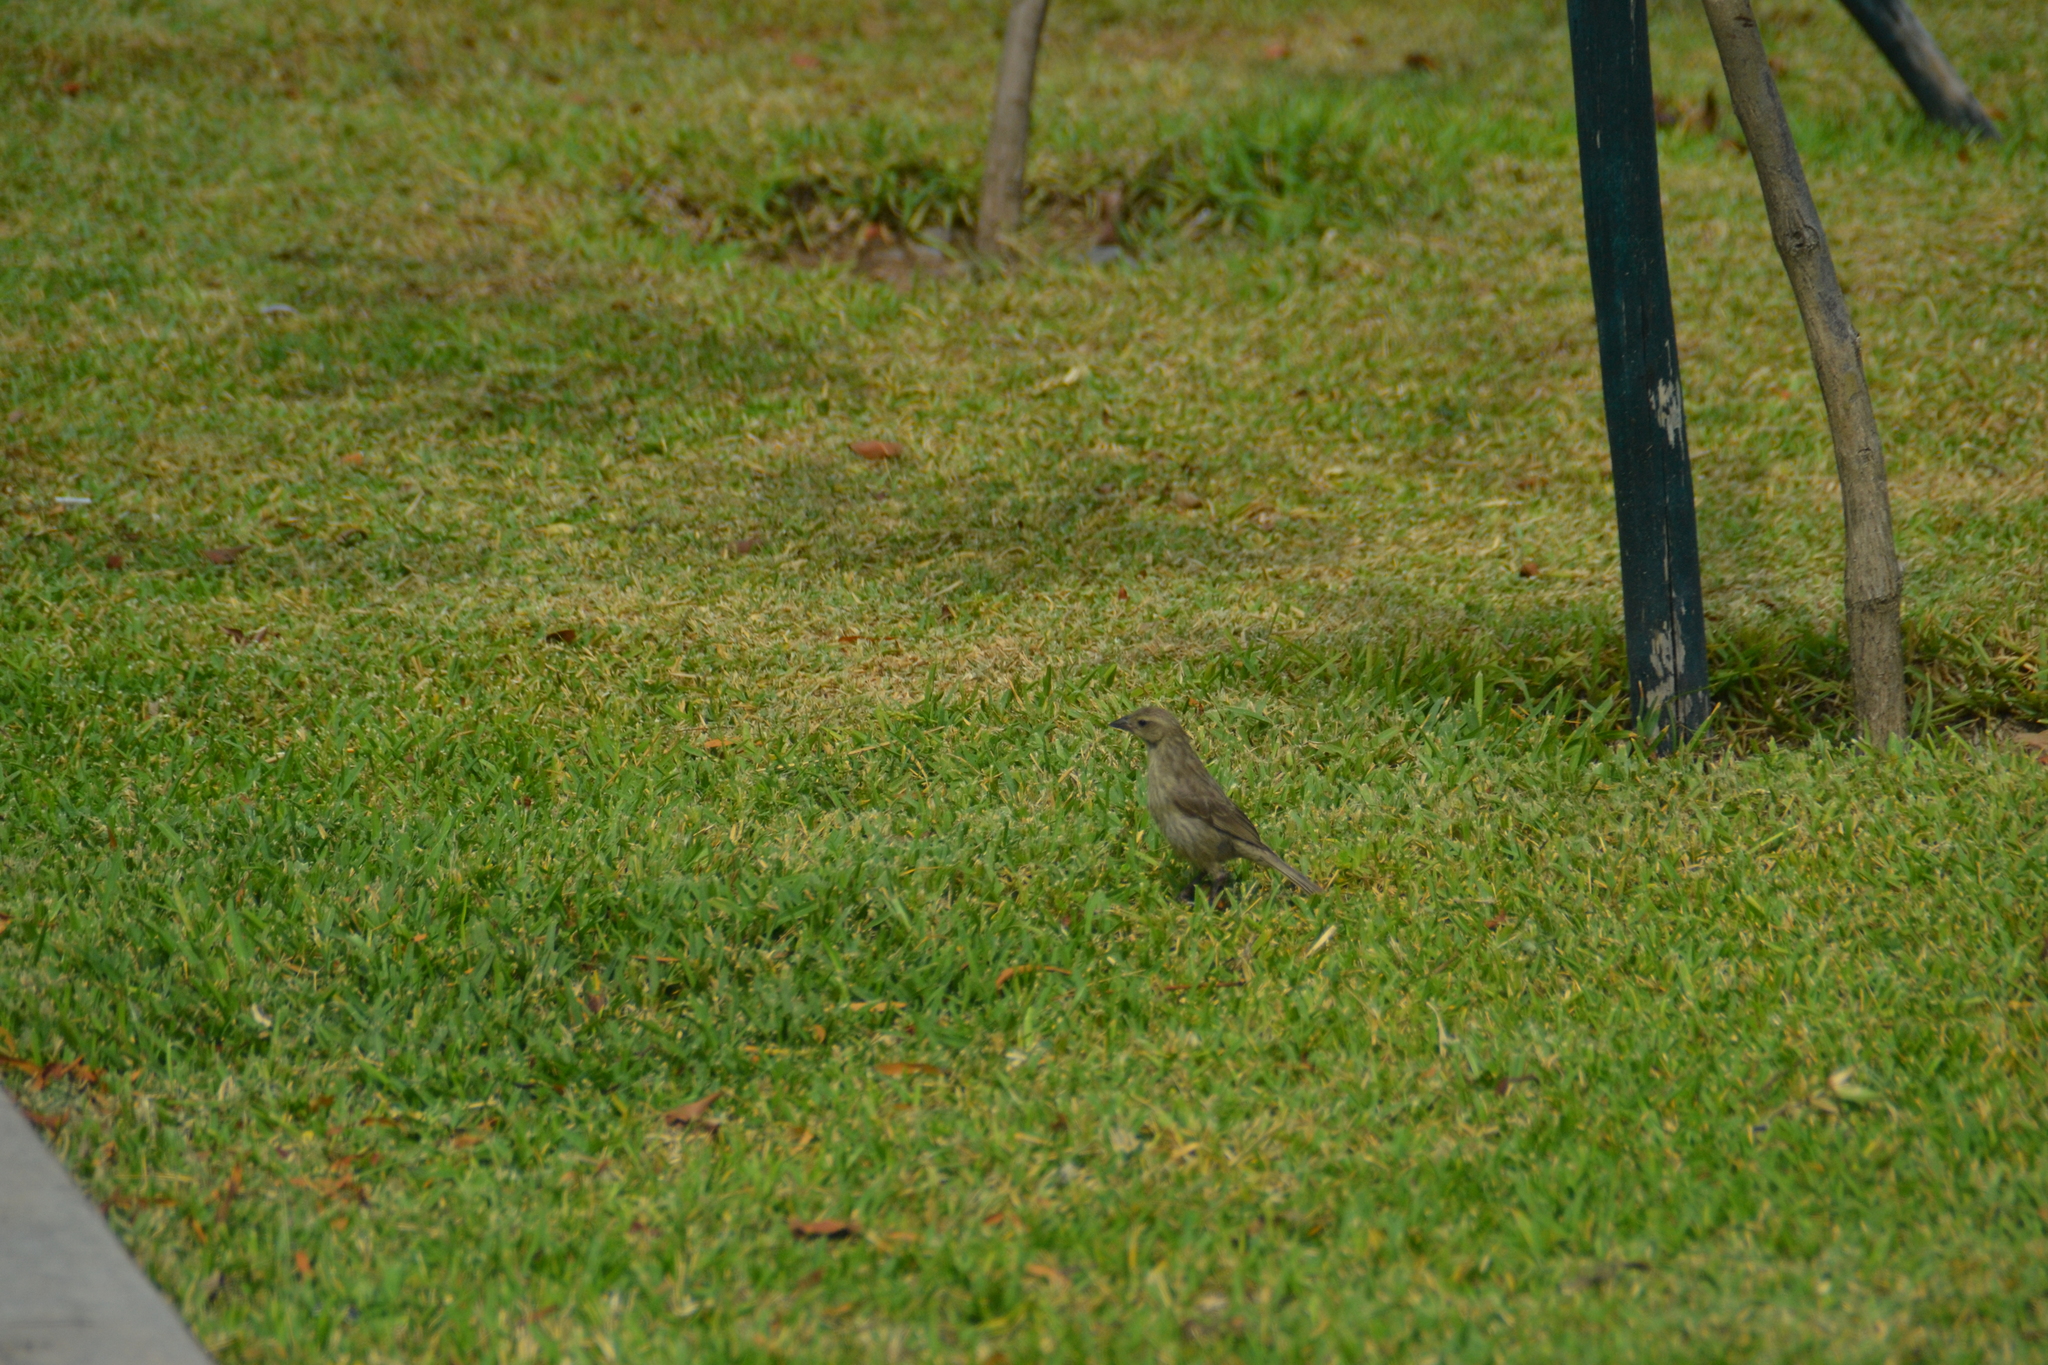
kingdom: Animalia
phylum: Chordata
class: Aves
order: Passeriformes
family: Icteridae
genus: Molothrus
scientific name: Molothrus bonariensis
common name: Shiny cowbird
